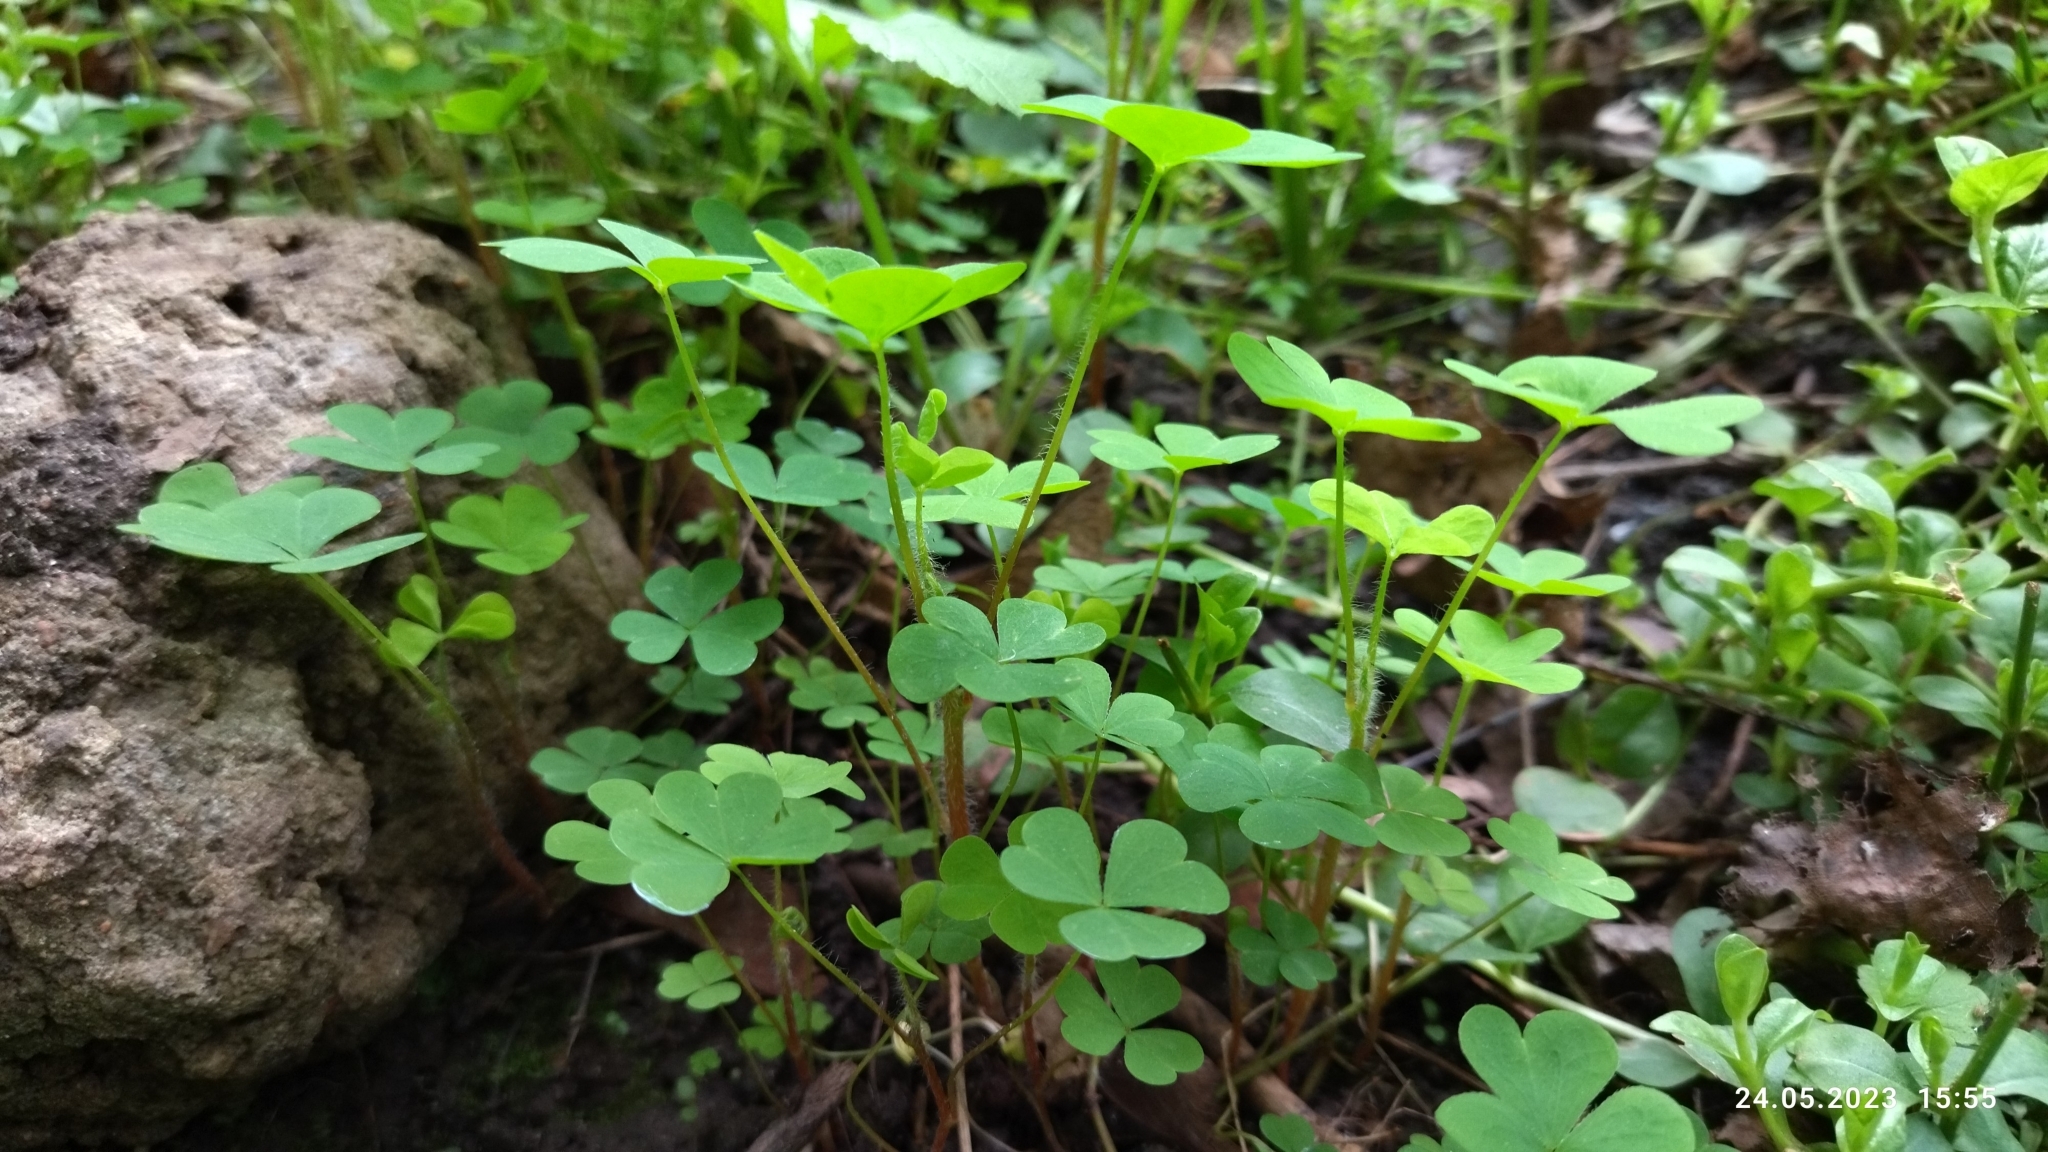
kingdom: Plantae
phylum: Tracheophyta
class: Magnoliopsida
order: Oxalidales
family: Oxalidaceae
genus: Oxalis
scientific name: Oxalis stricta
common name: Upright yellow-sorrel
